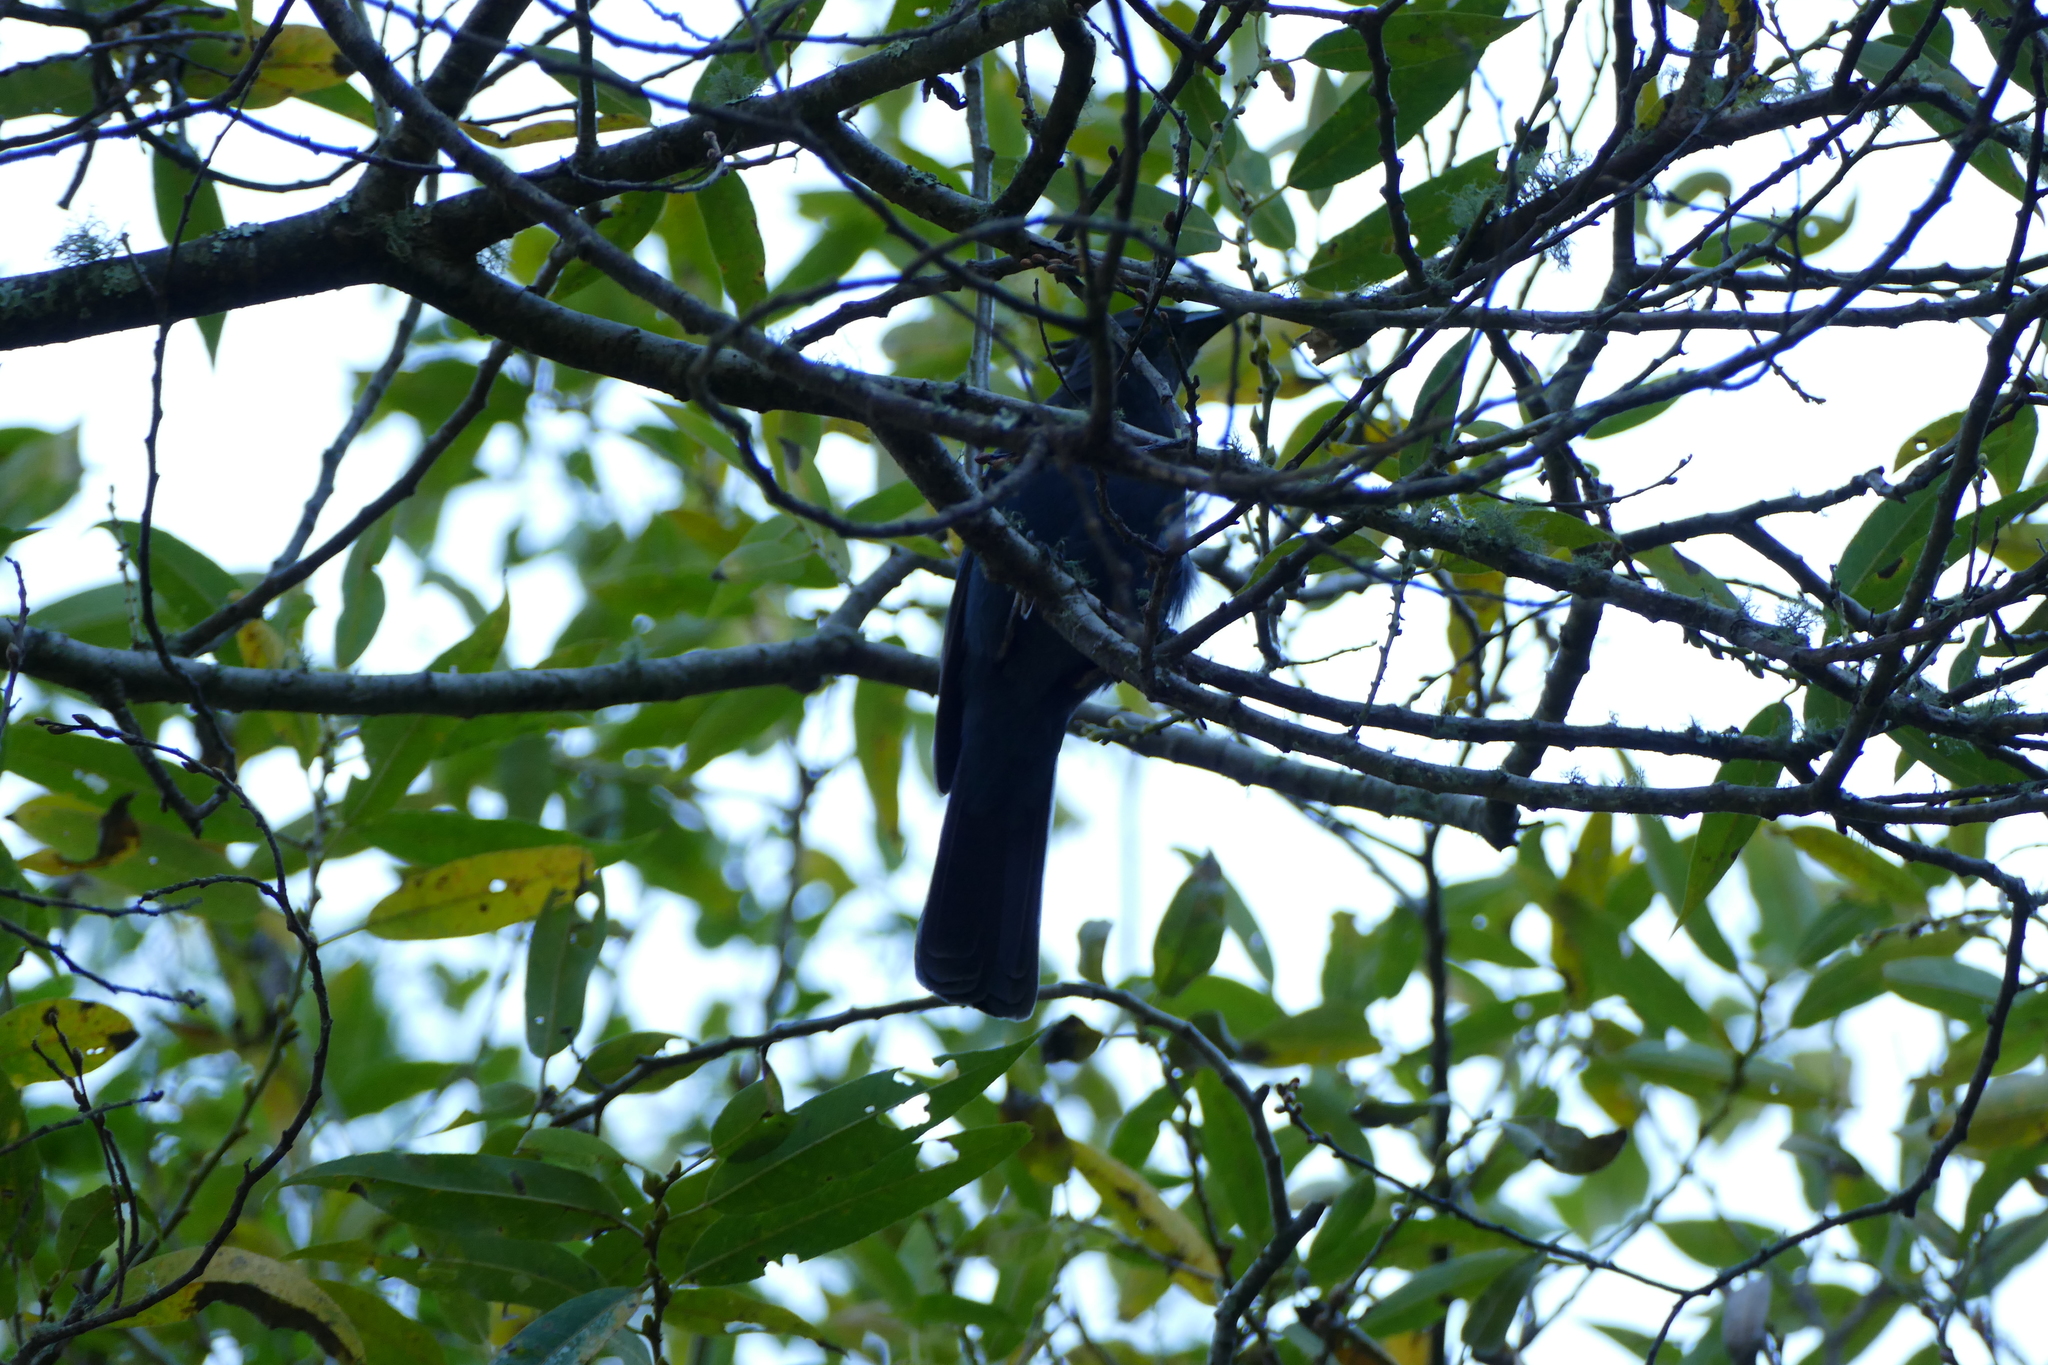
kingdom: Animalia
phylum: Chordata
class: Aves
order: Passeriformes
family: Corvidae
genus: Cyanocitta
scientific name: Cyanocitta stelleri
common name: Steller's jay
